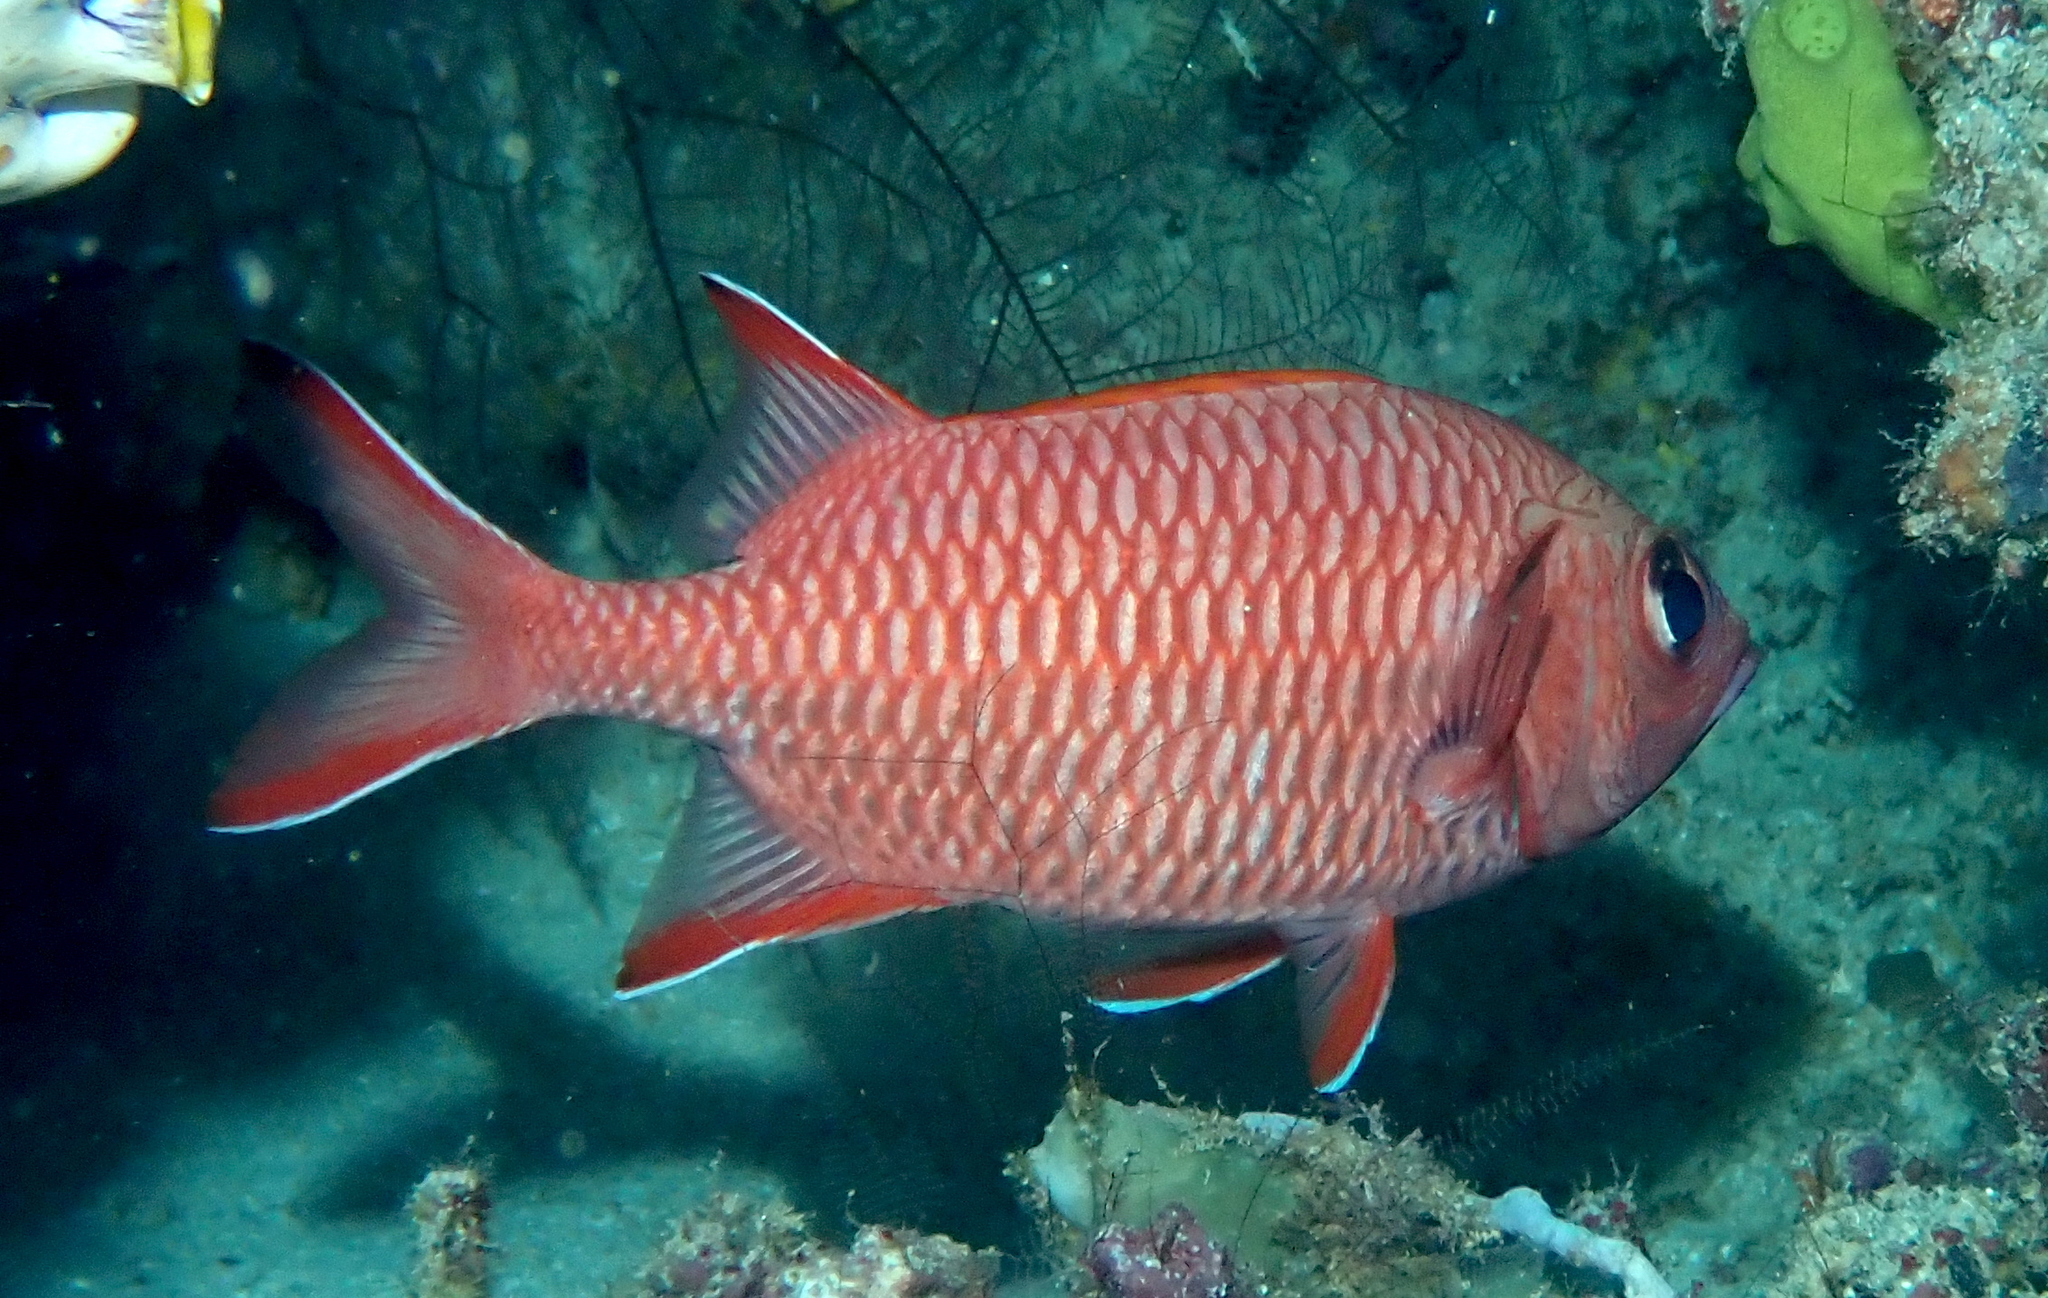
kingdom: Animalia
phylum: Chordata
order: Beryciformes
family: Holocentridae
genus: Myripristis
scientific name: Myripristis berndti
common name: Bigscale soldierfish
